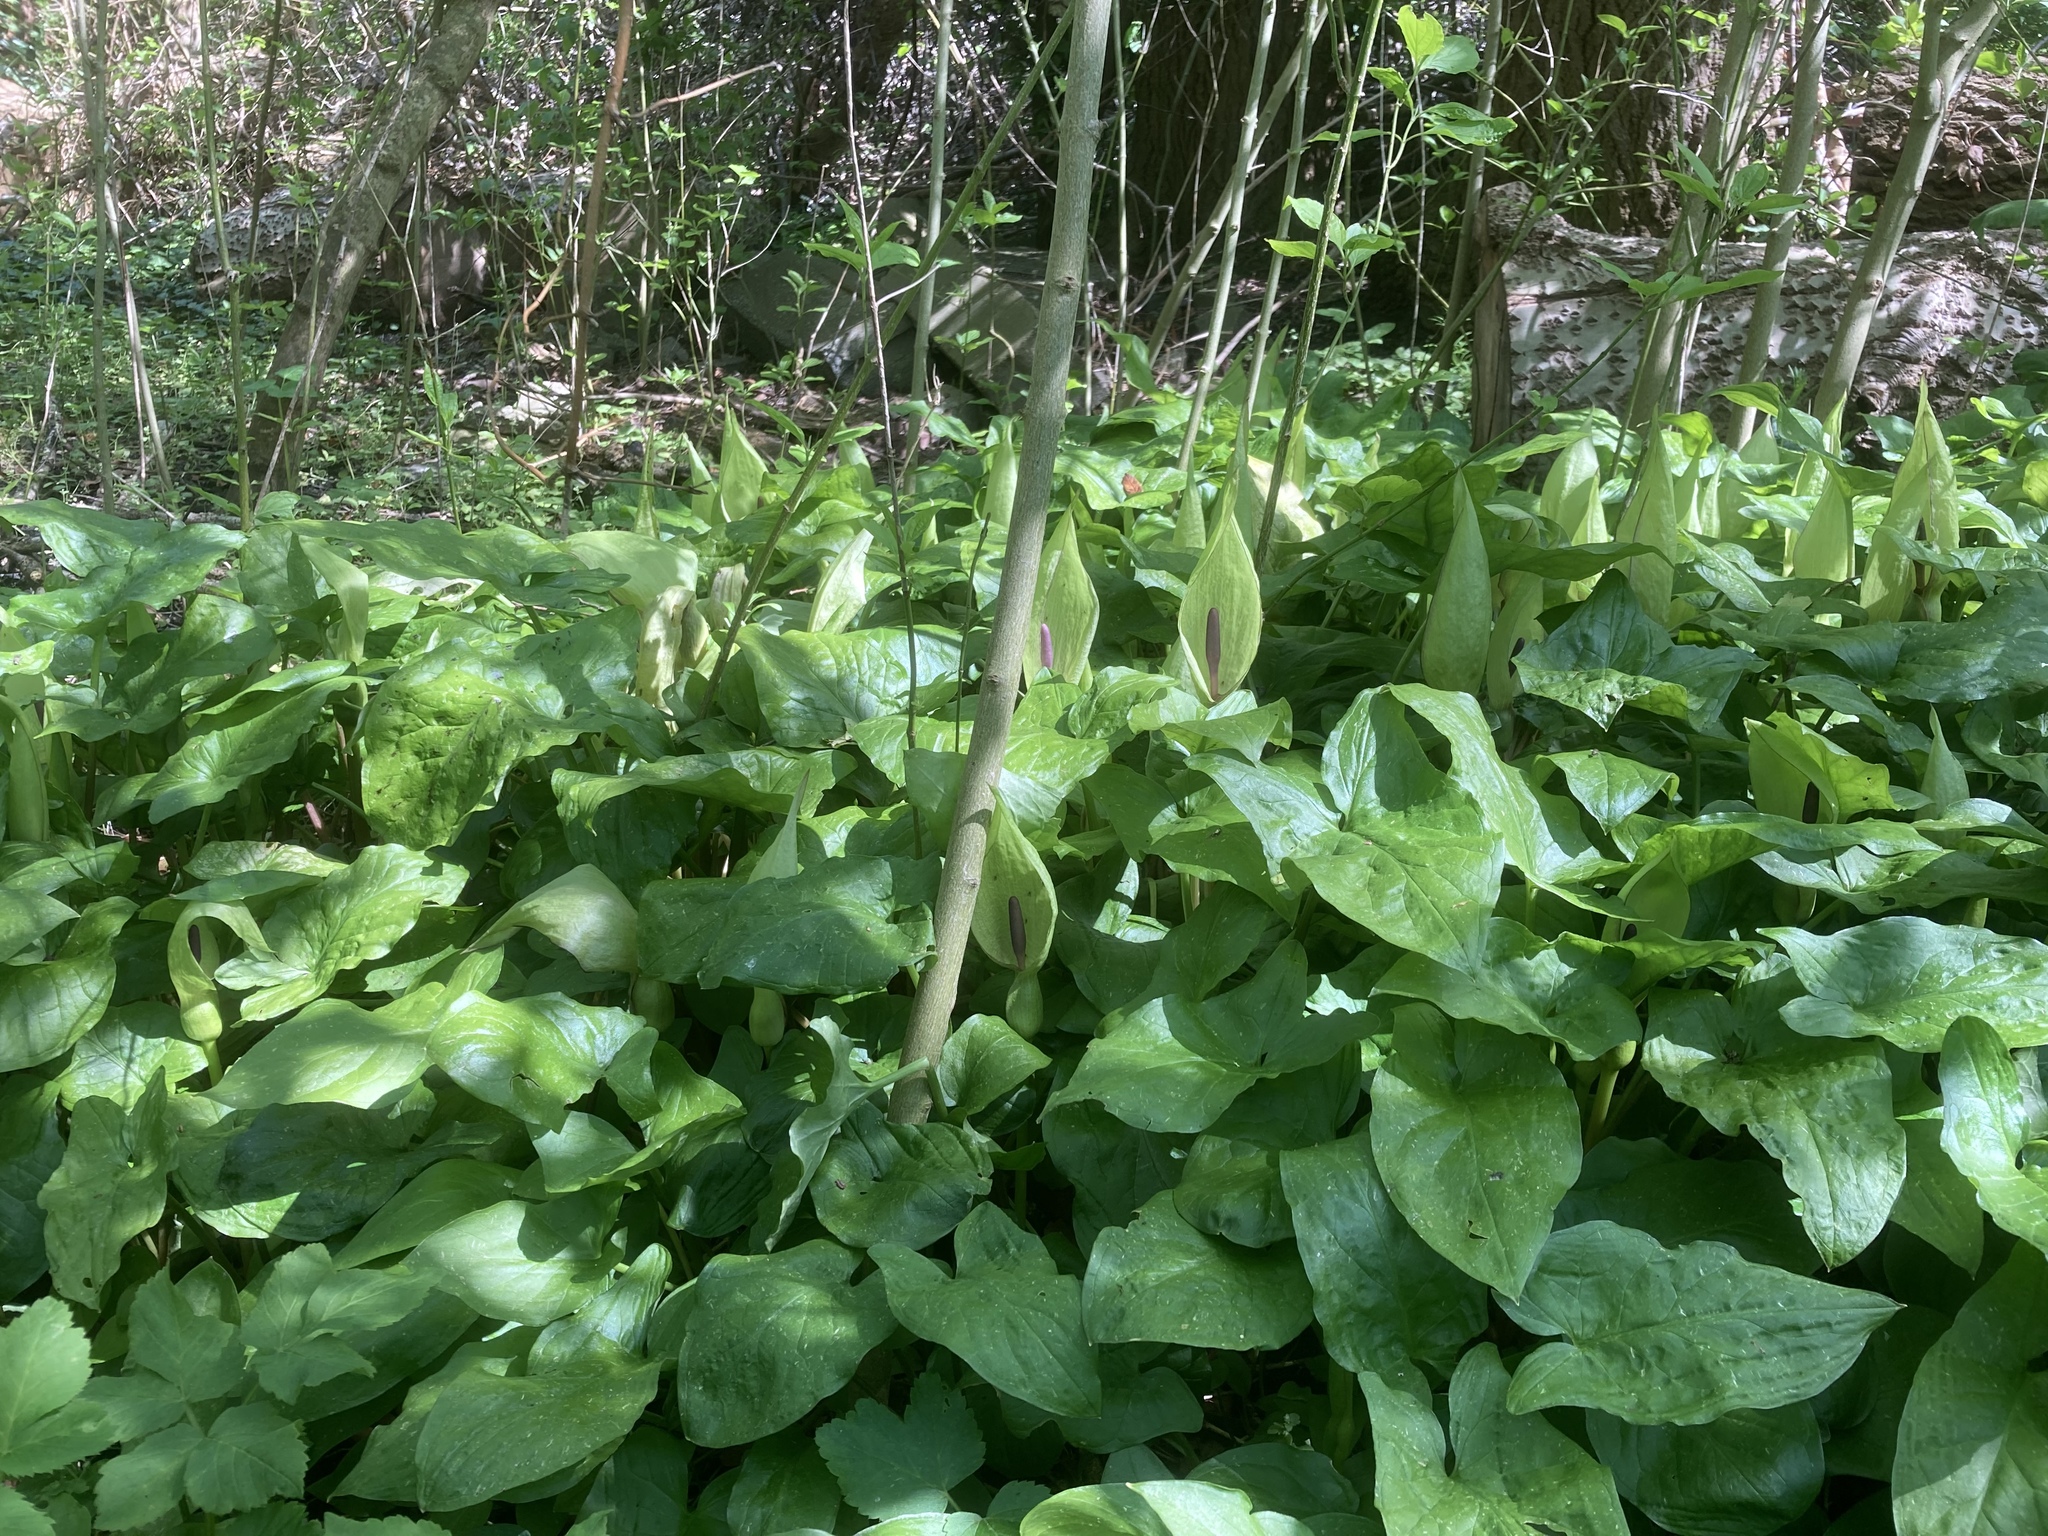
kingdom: Plantae
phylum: Tracheophyta
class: Liliopsida
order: Alismatales
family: Araceae
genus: Arum
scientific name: Arum maculatum
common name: Lords-and-ladies
